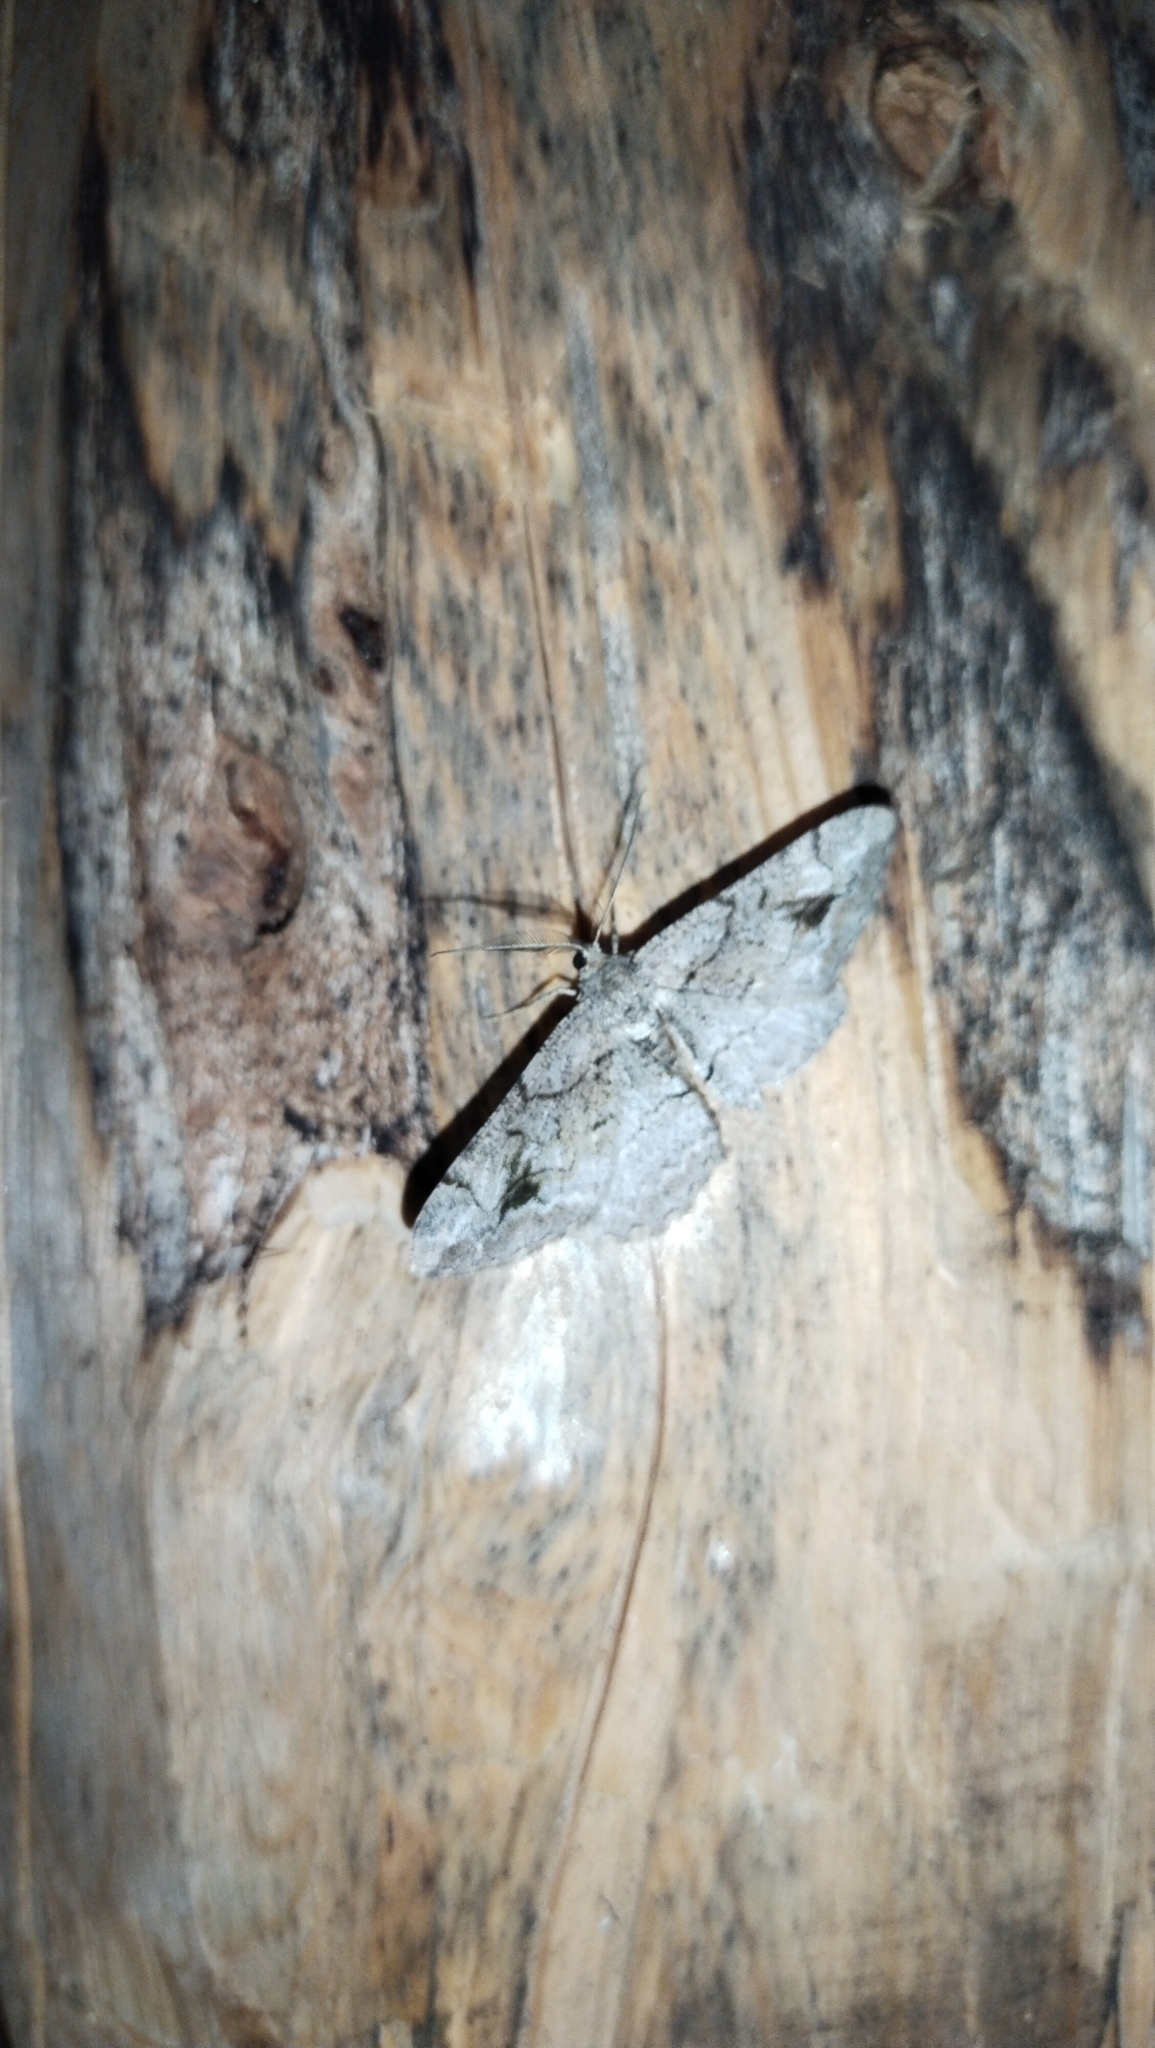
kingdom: Animalia
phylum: Arthropoda
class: Insecta
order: Lepidoptera
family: Geometridae
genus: Alcis
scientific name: Alcis deversata
